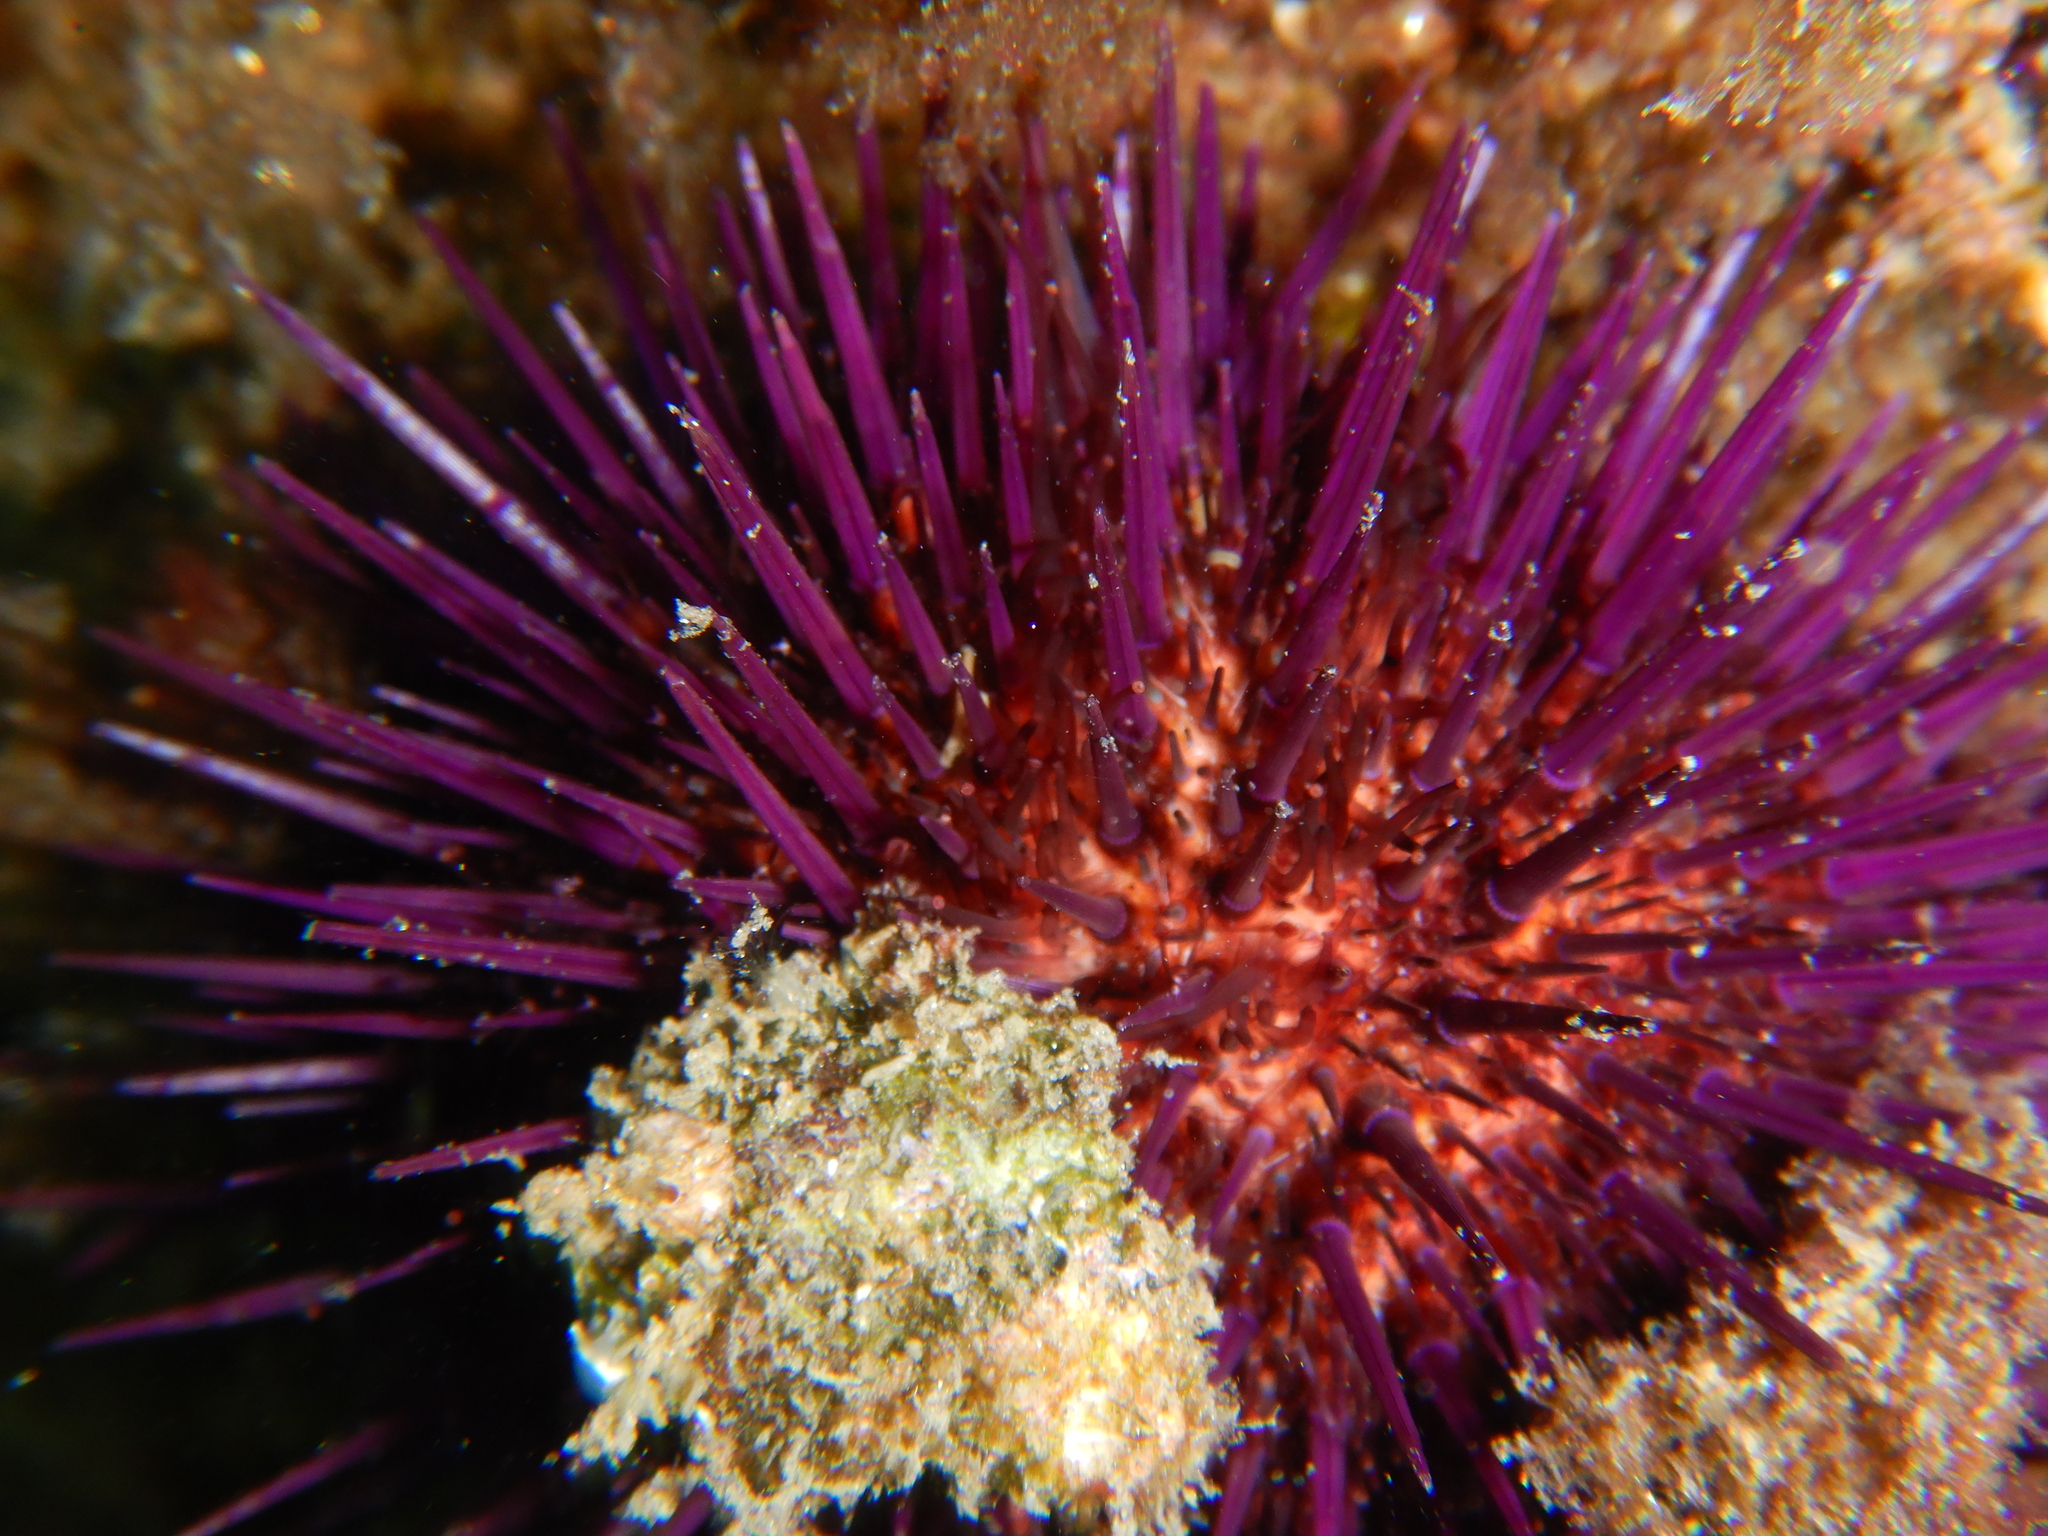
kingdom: Animalia
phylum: Echinodermata
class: Echinoidea
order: Camarodonta
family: Parechinidae
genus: Paracentrotus
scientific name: Paracentrotus lividus
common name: Purple sea urchin
